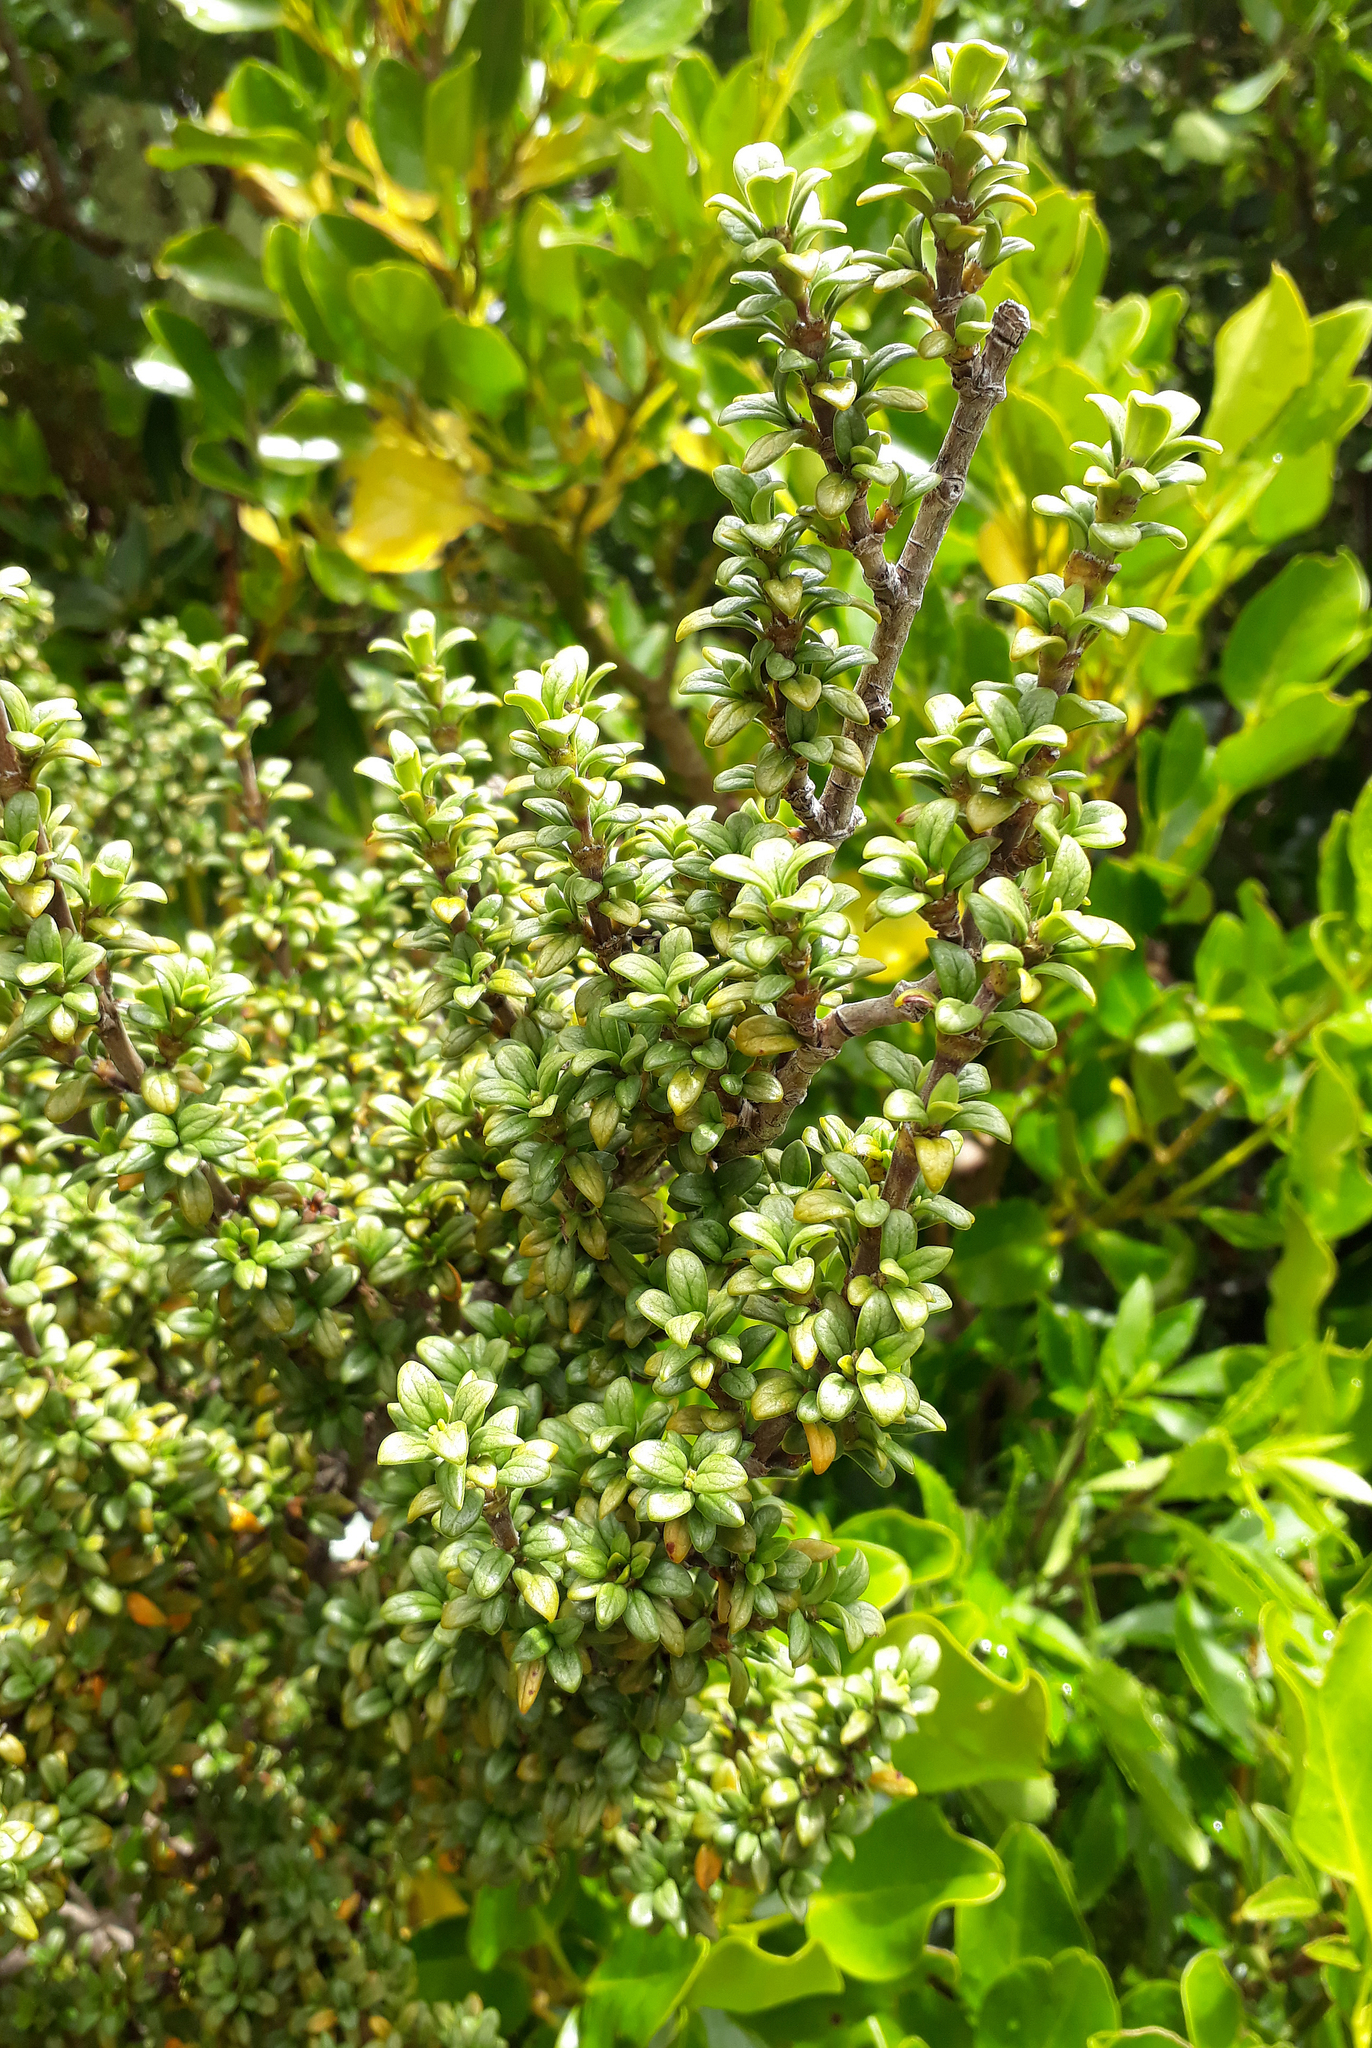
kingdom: Plantae
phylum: Tracheophyta
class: Magnoliopsida
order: Gentianales
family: Rubiaceae
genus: Coprosma
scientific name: Coprosma pseudocuneata
